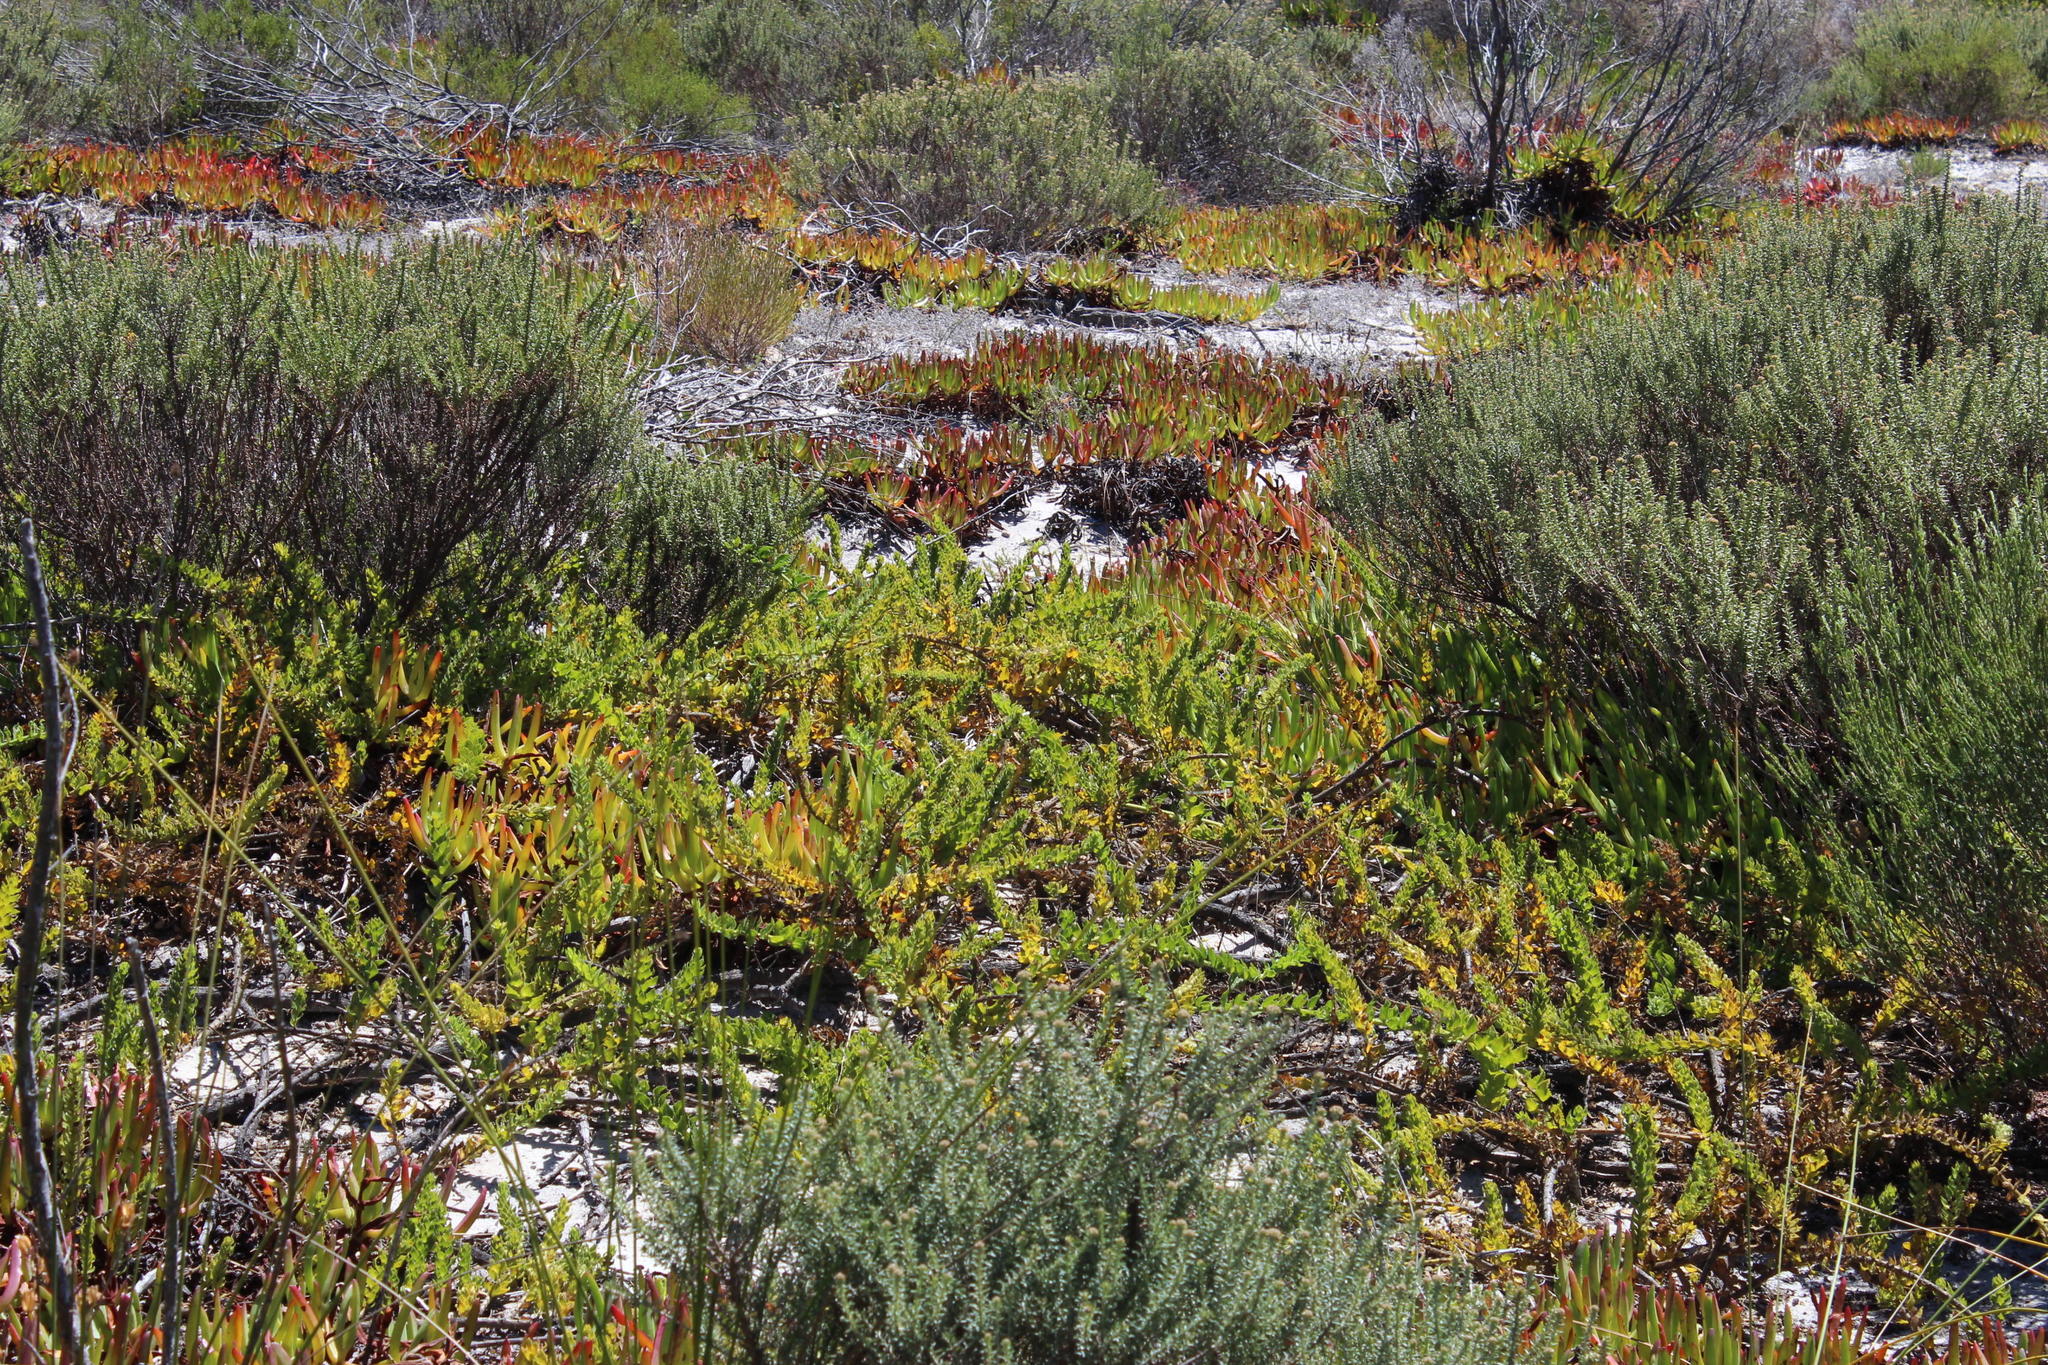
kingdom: Plantae
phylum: Tracheophyta
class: Magnoliopsida
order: Lamiales
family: Scrophulariaceae
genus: Oftia
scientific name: Oftia africana
